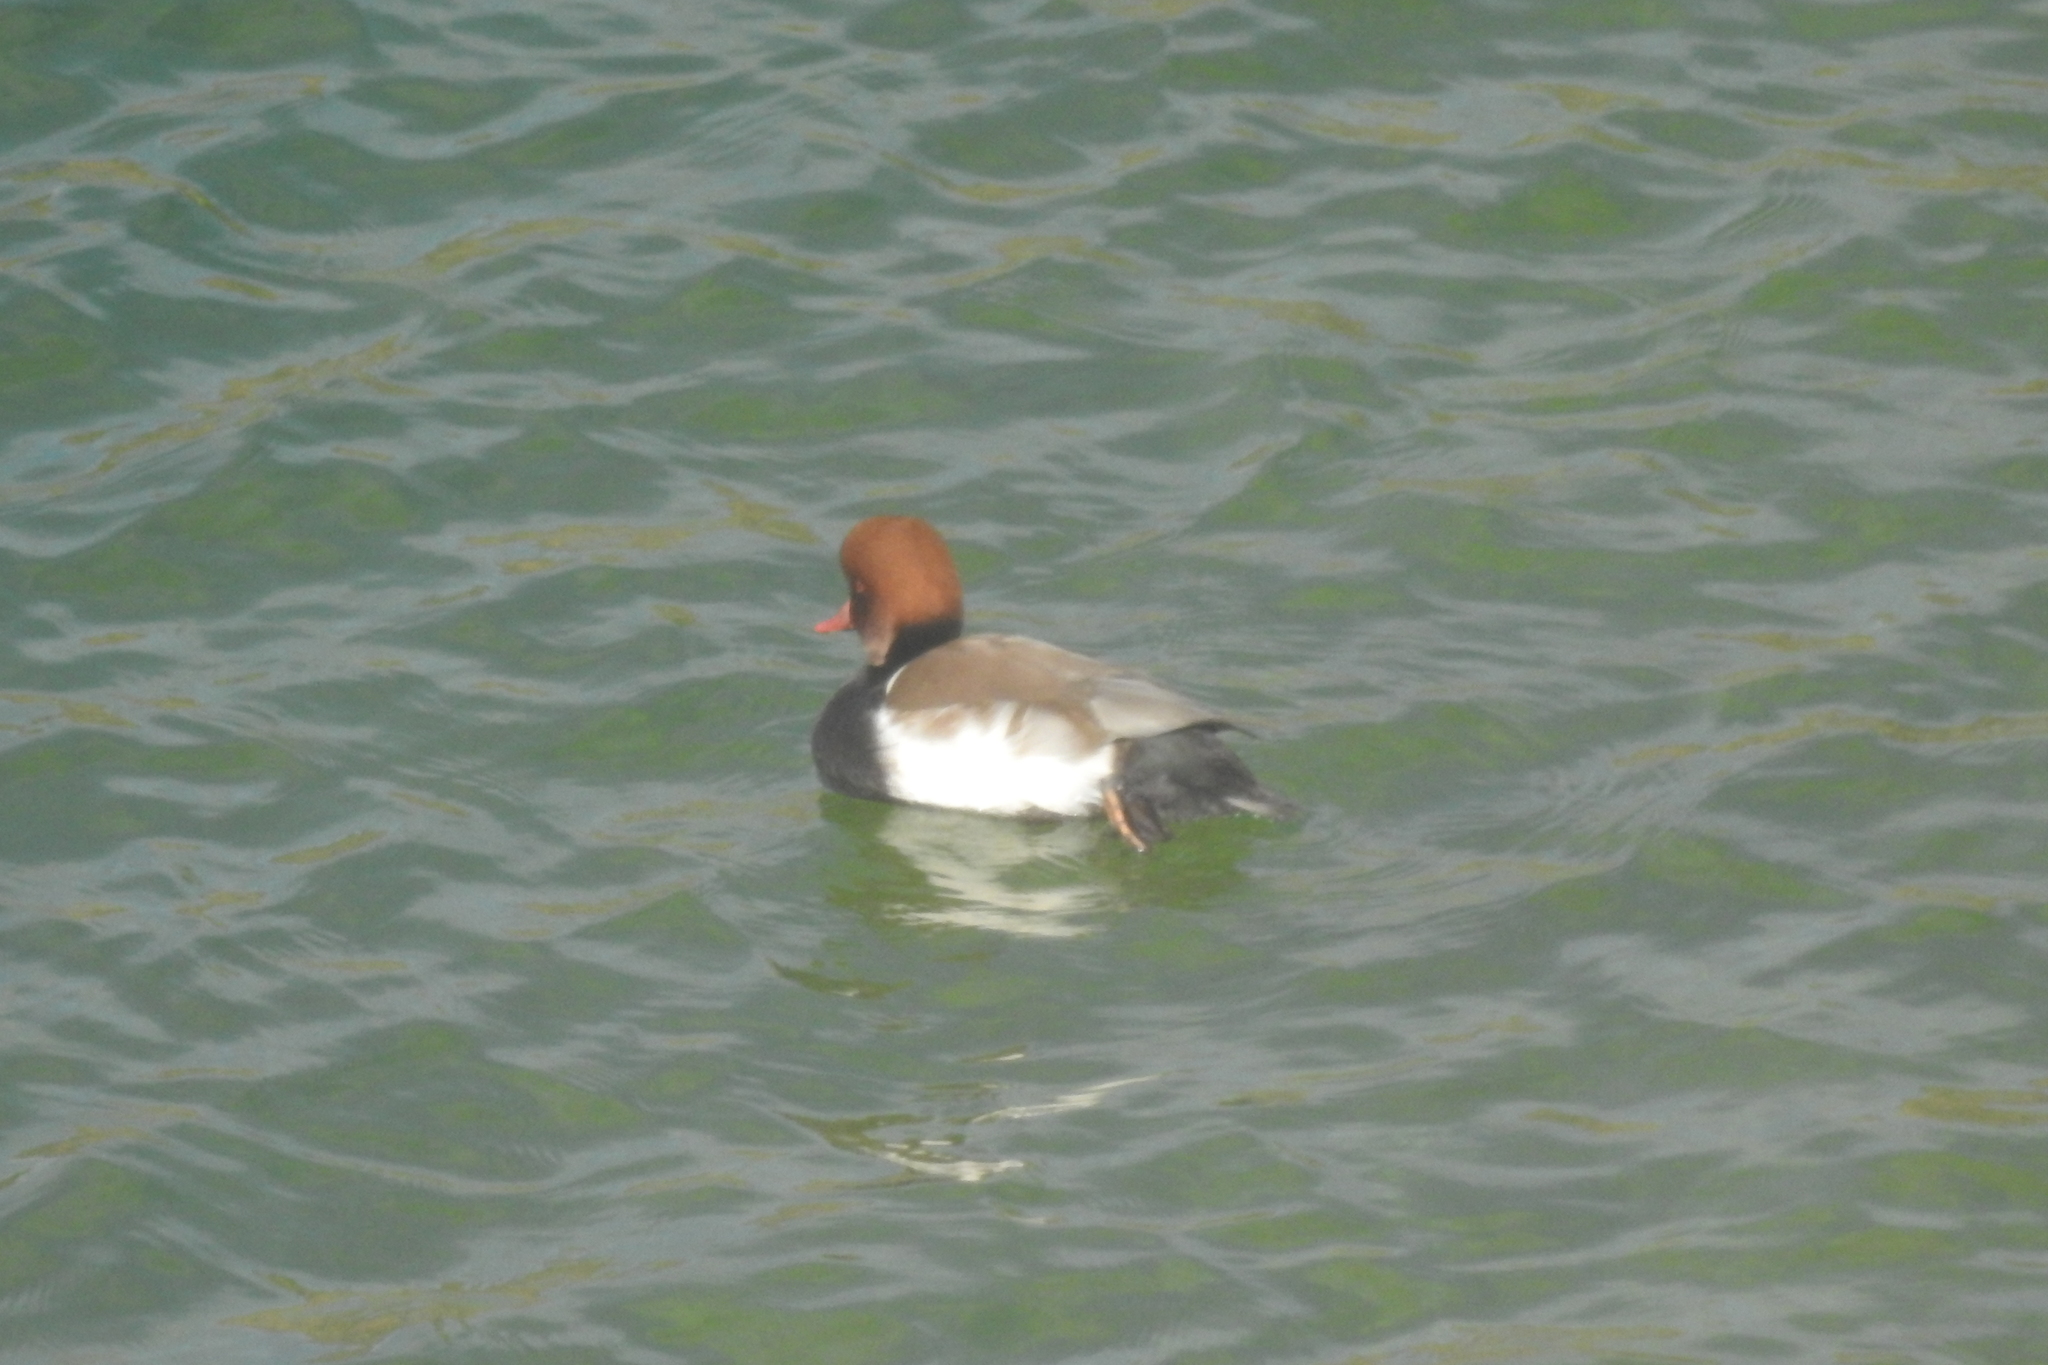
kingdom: Animalia
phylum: Chordata
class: Aves
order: Anseriformes
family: Anatidae
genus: Netta
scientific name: Netta rufina
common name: Red-crested pochard
